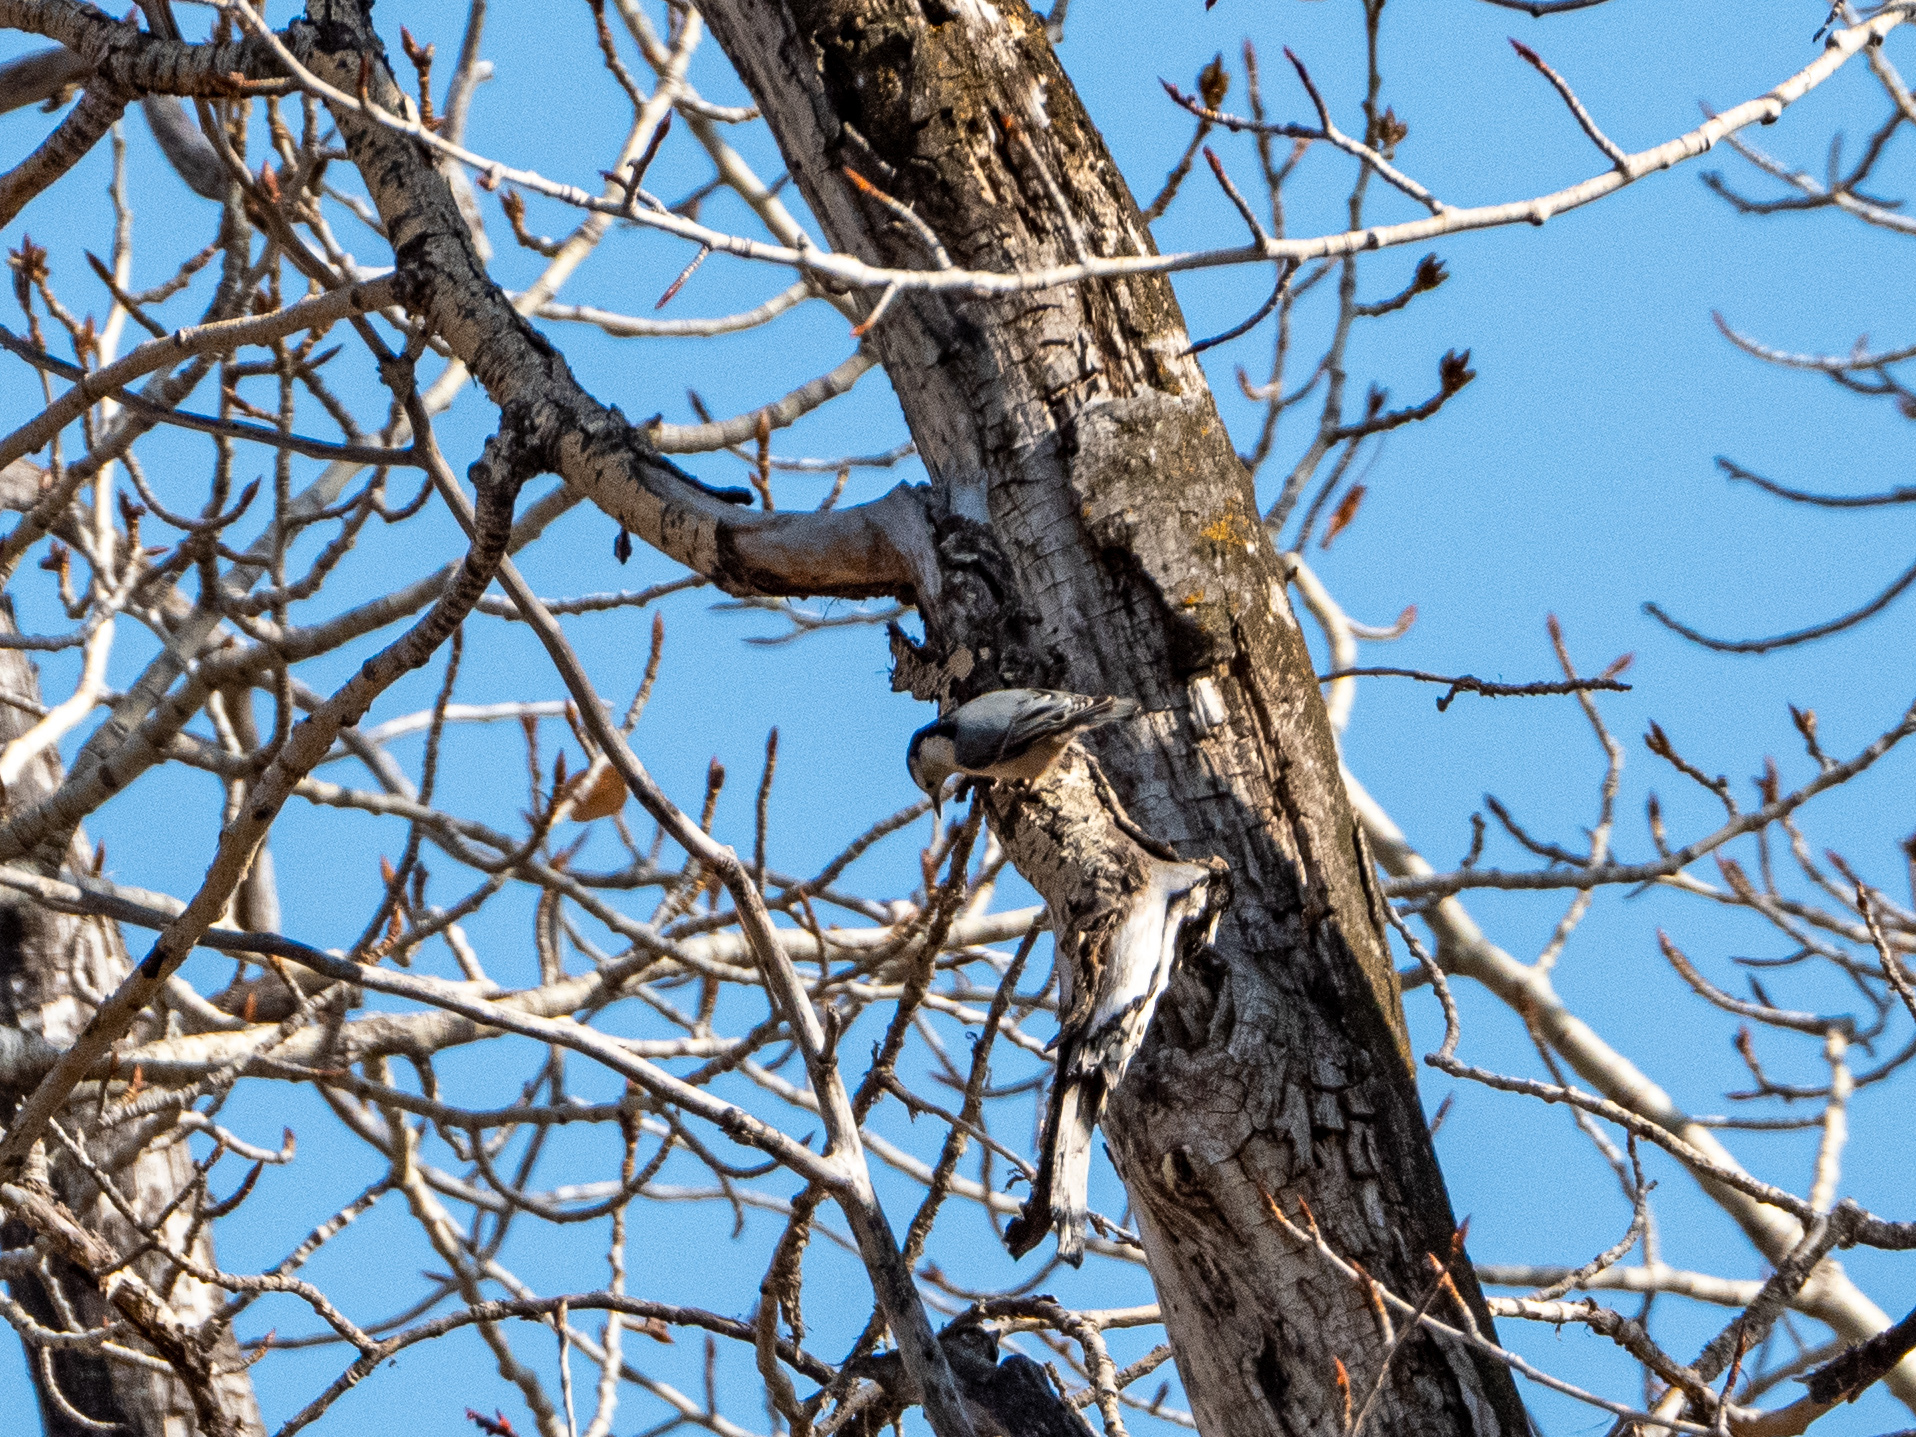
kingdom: Animalia
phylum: Chordata
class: Aves
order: Passeriformes
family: Sittidae
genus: Sitta
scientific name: Sitta carolinensis
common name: White-breasted nuthatch
